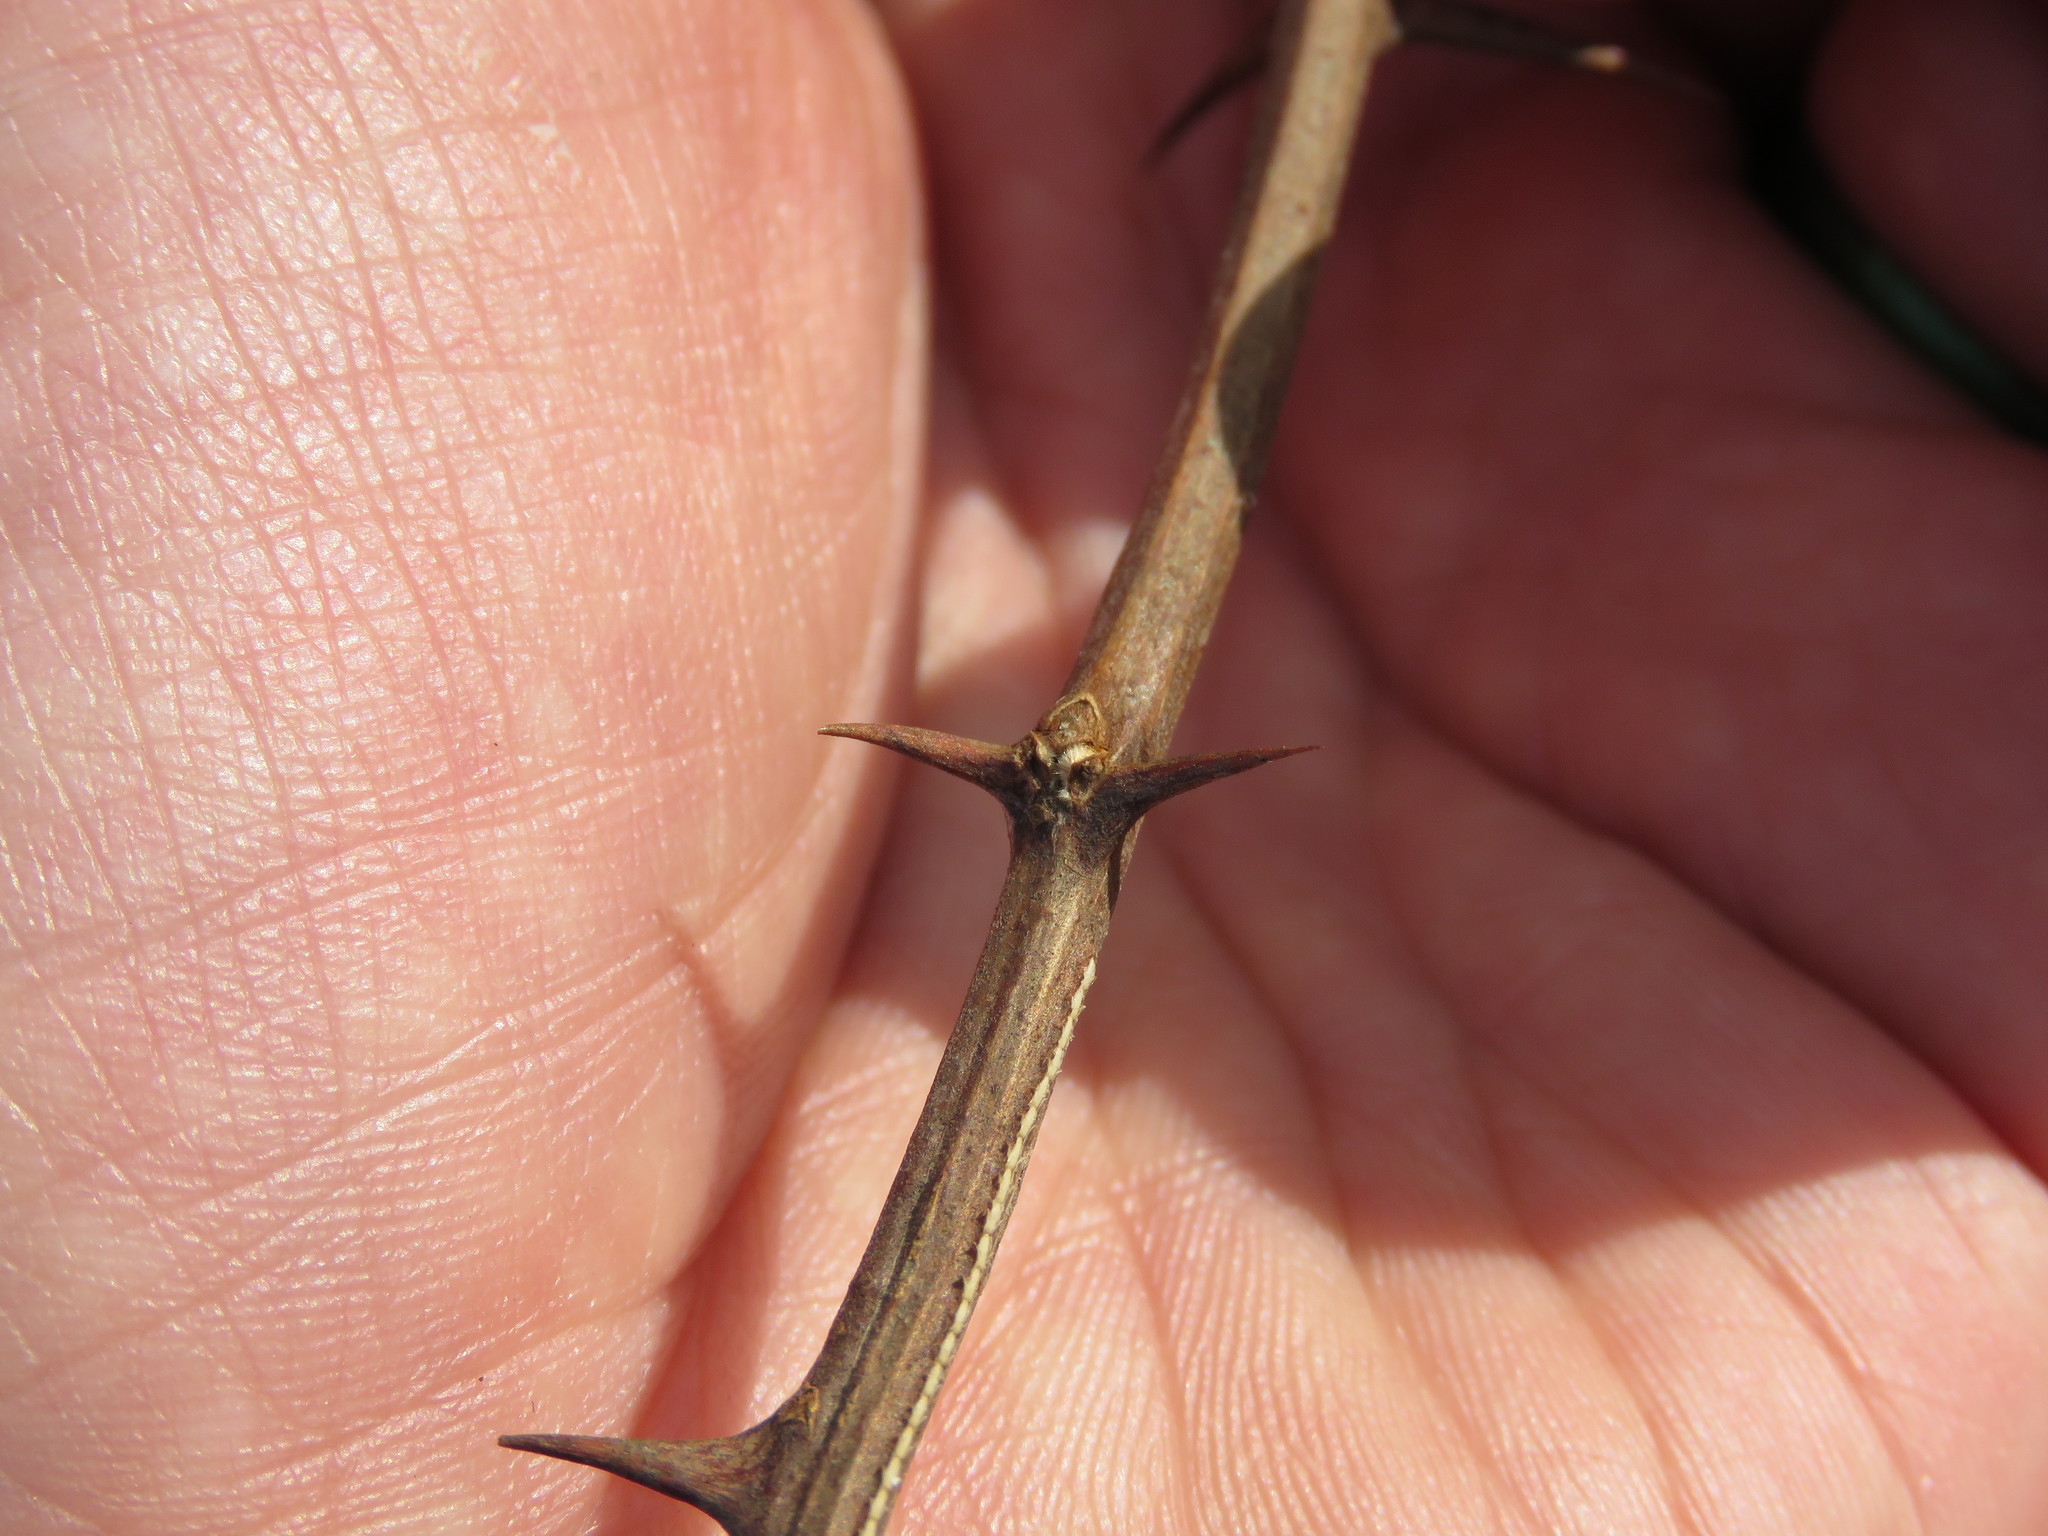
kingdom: Plantae
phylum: Tracheophyta
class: Magnoliopsida
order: Fabales
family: Fabaceae
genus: Robinia
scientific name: Robinia pseudoacacia
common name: Black locust
